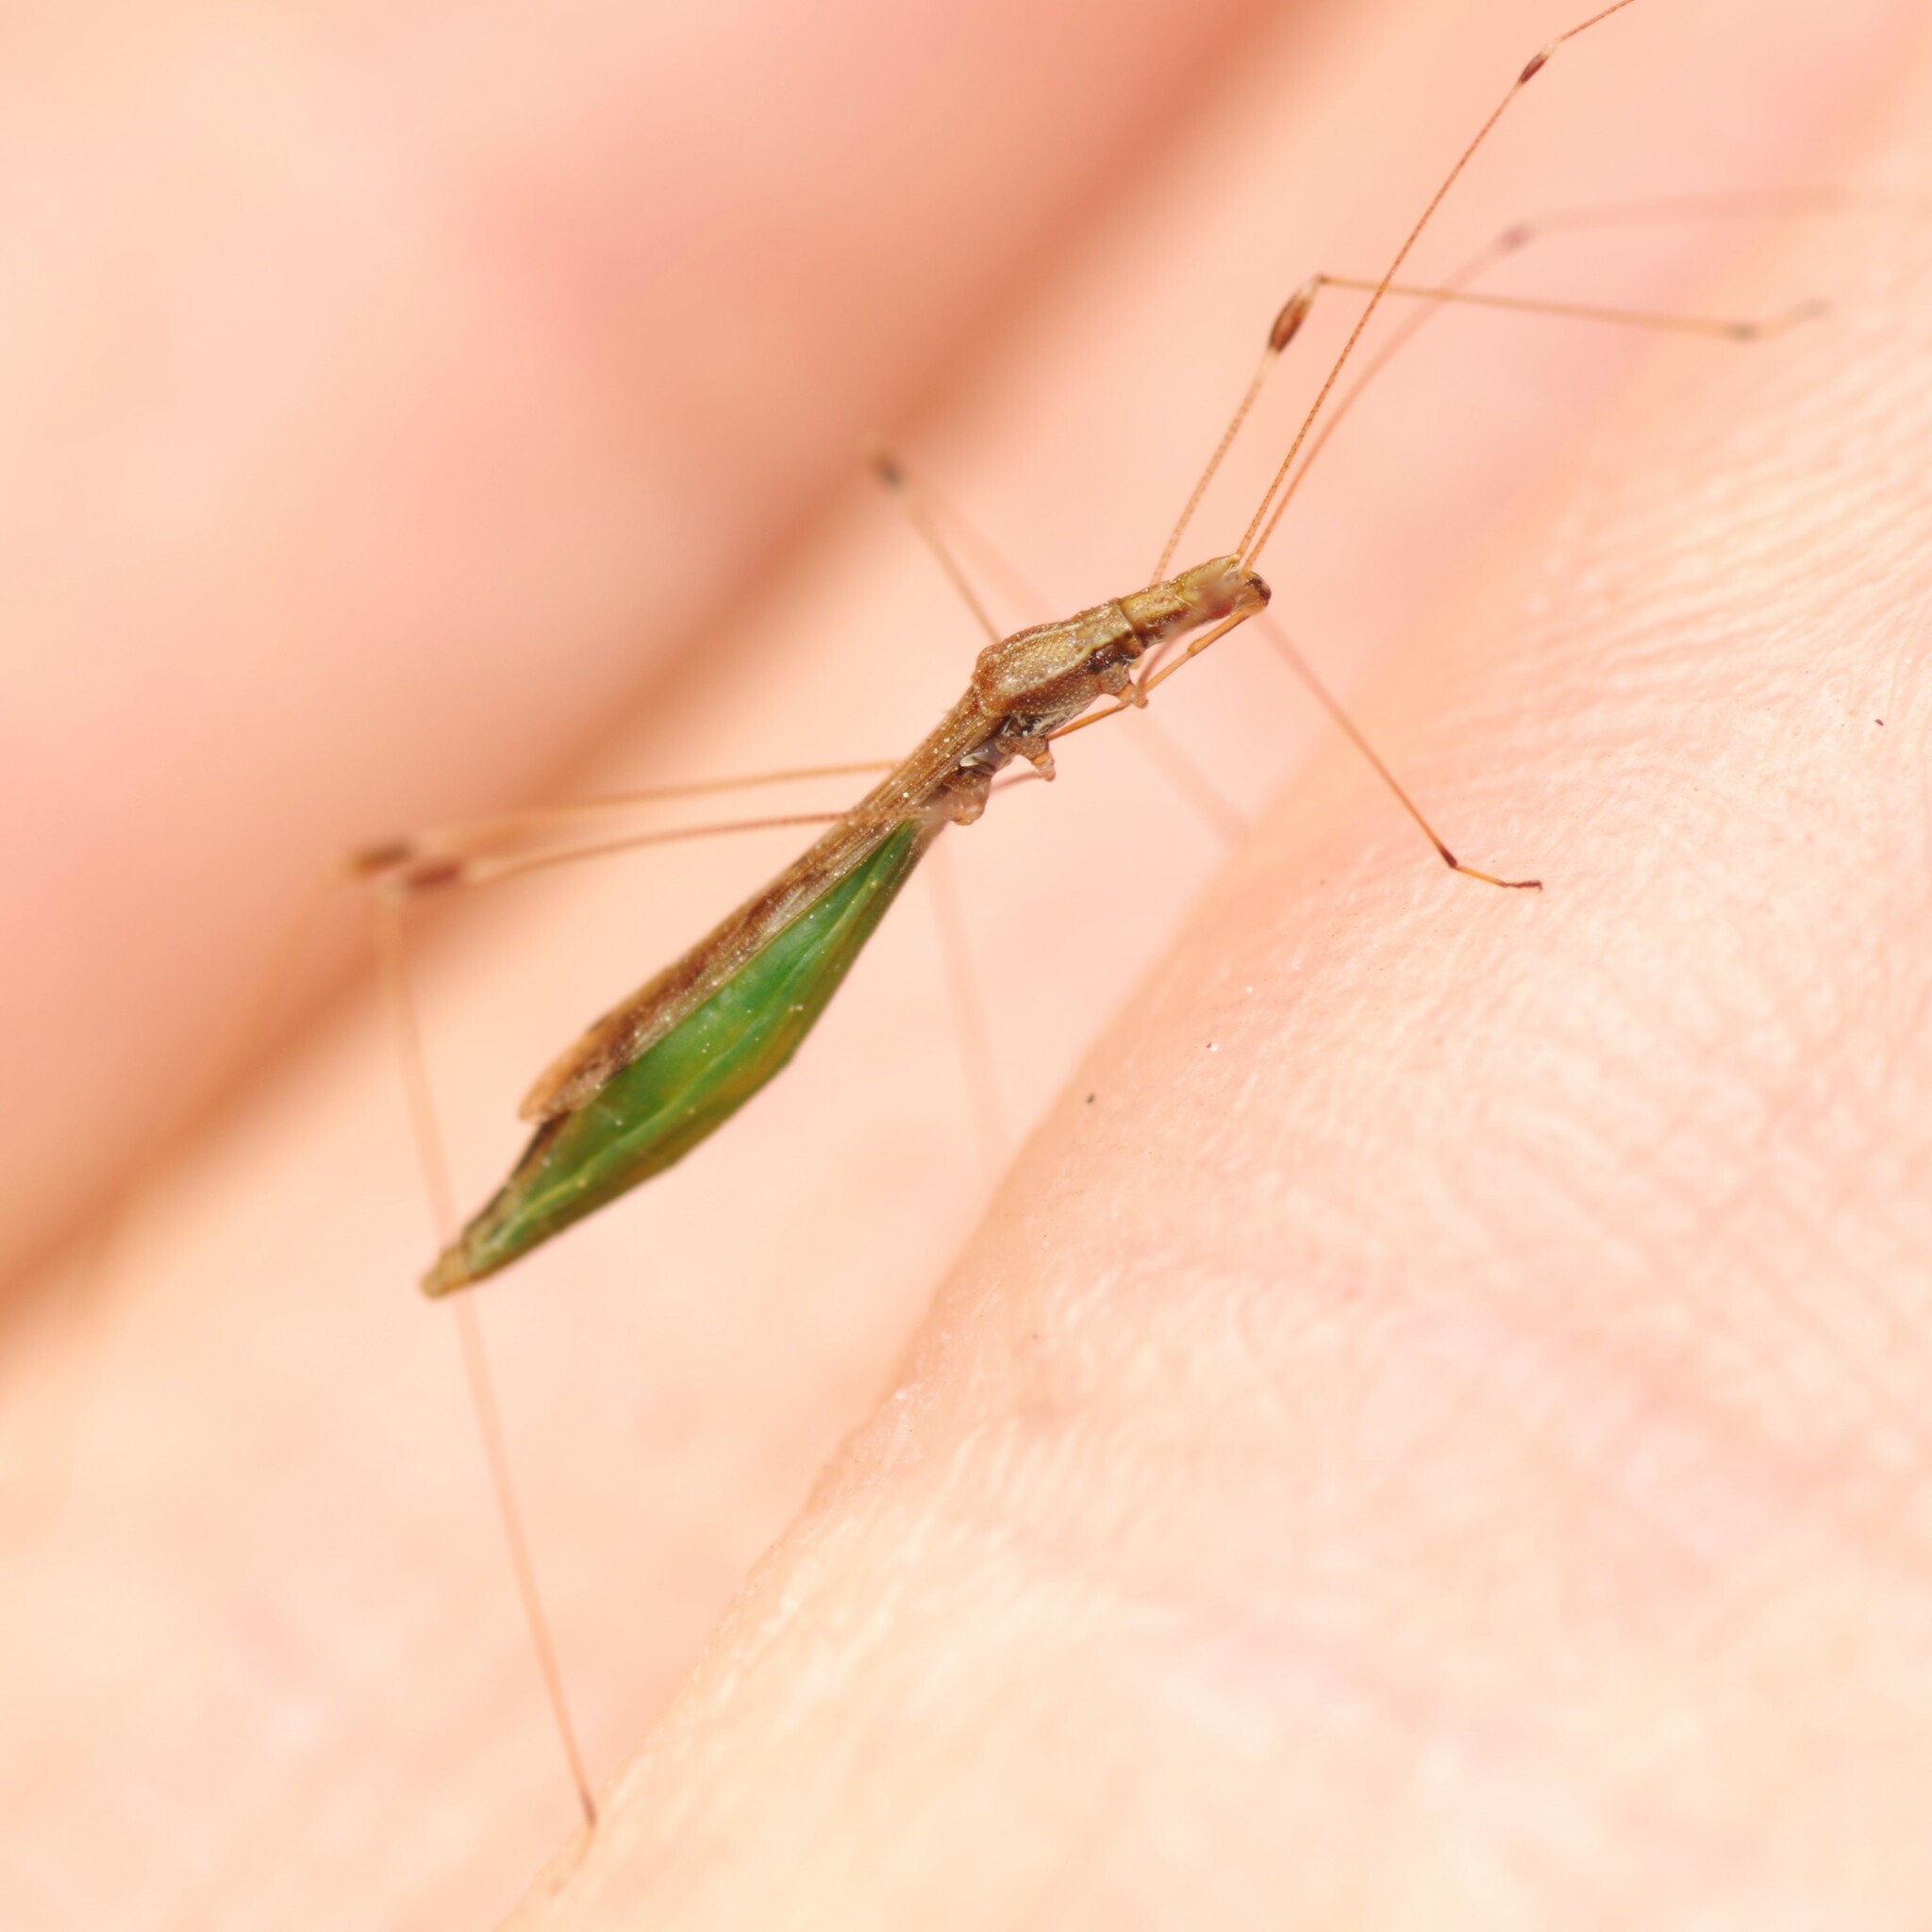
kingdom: Animalia
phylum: Arthropoda
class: Insecta
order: Hemiptera
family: Berytidae
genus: Apoplymus
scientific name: Apoplymus pectoralis
